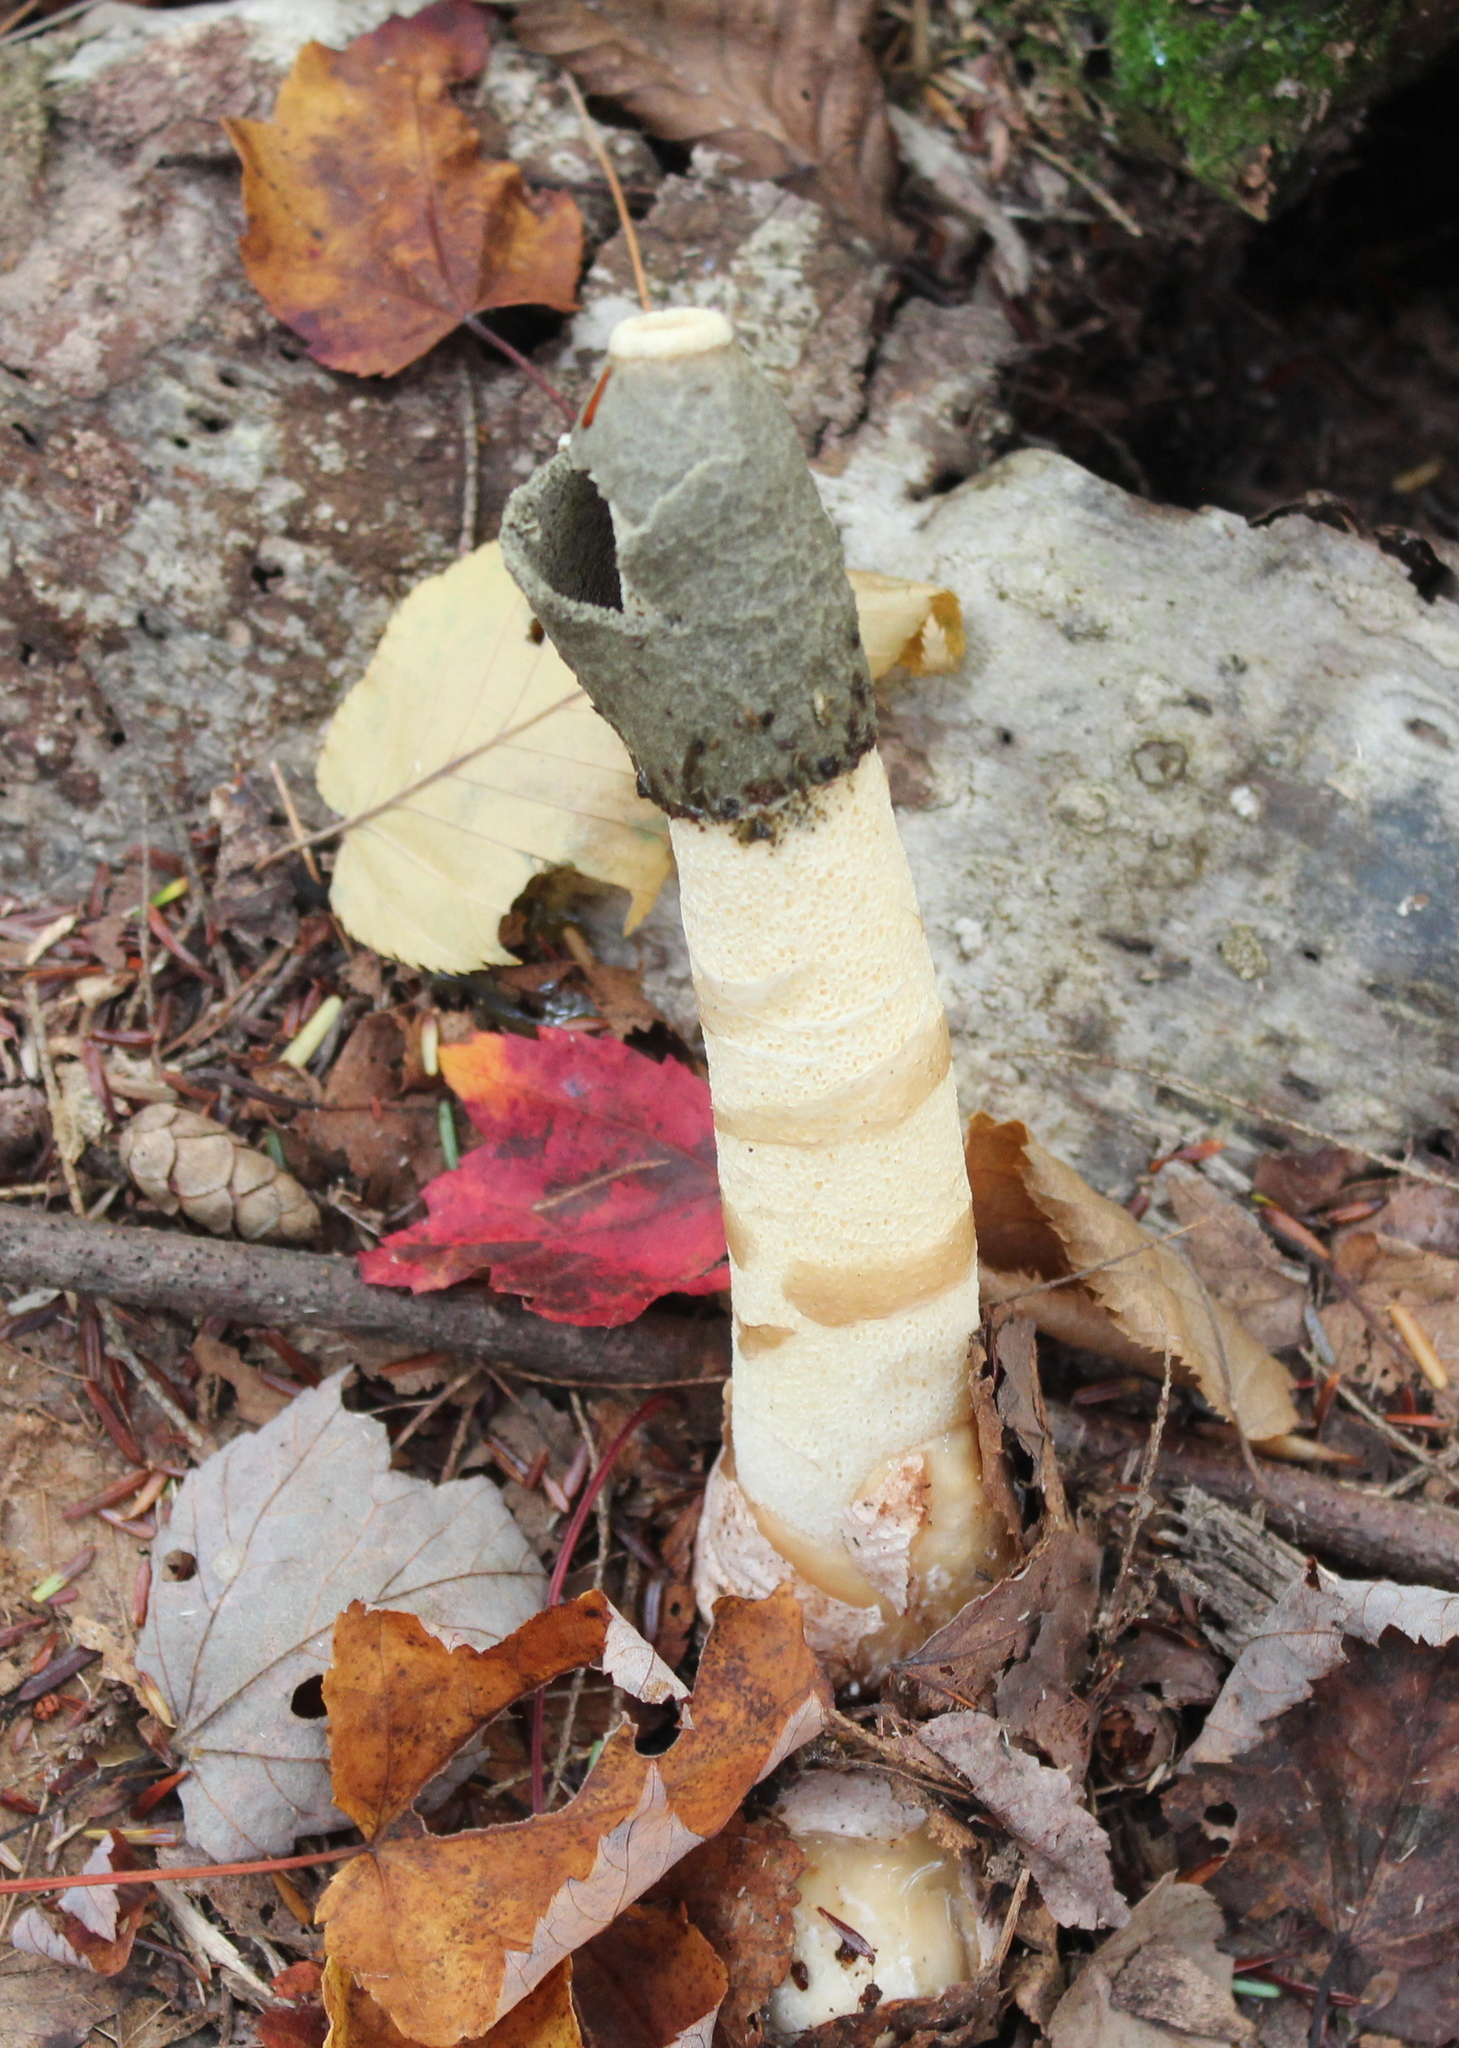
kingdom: Fungi
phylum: Basidiomycota
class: Agaricomycetes
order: Phallales
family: Phallaceae
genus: Phallus
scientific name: Phallus ravenelii
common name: Ravenel's stinkhorn
